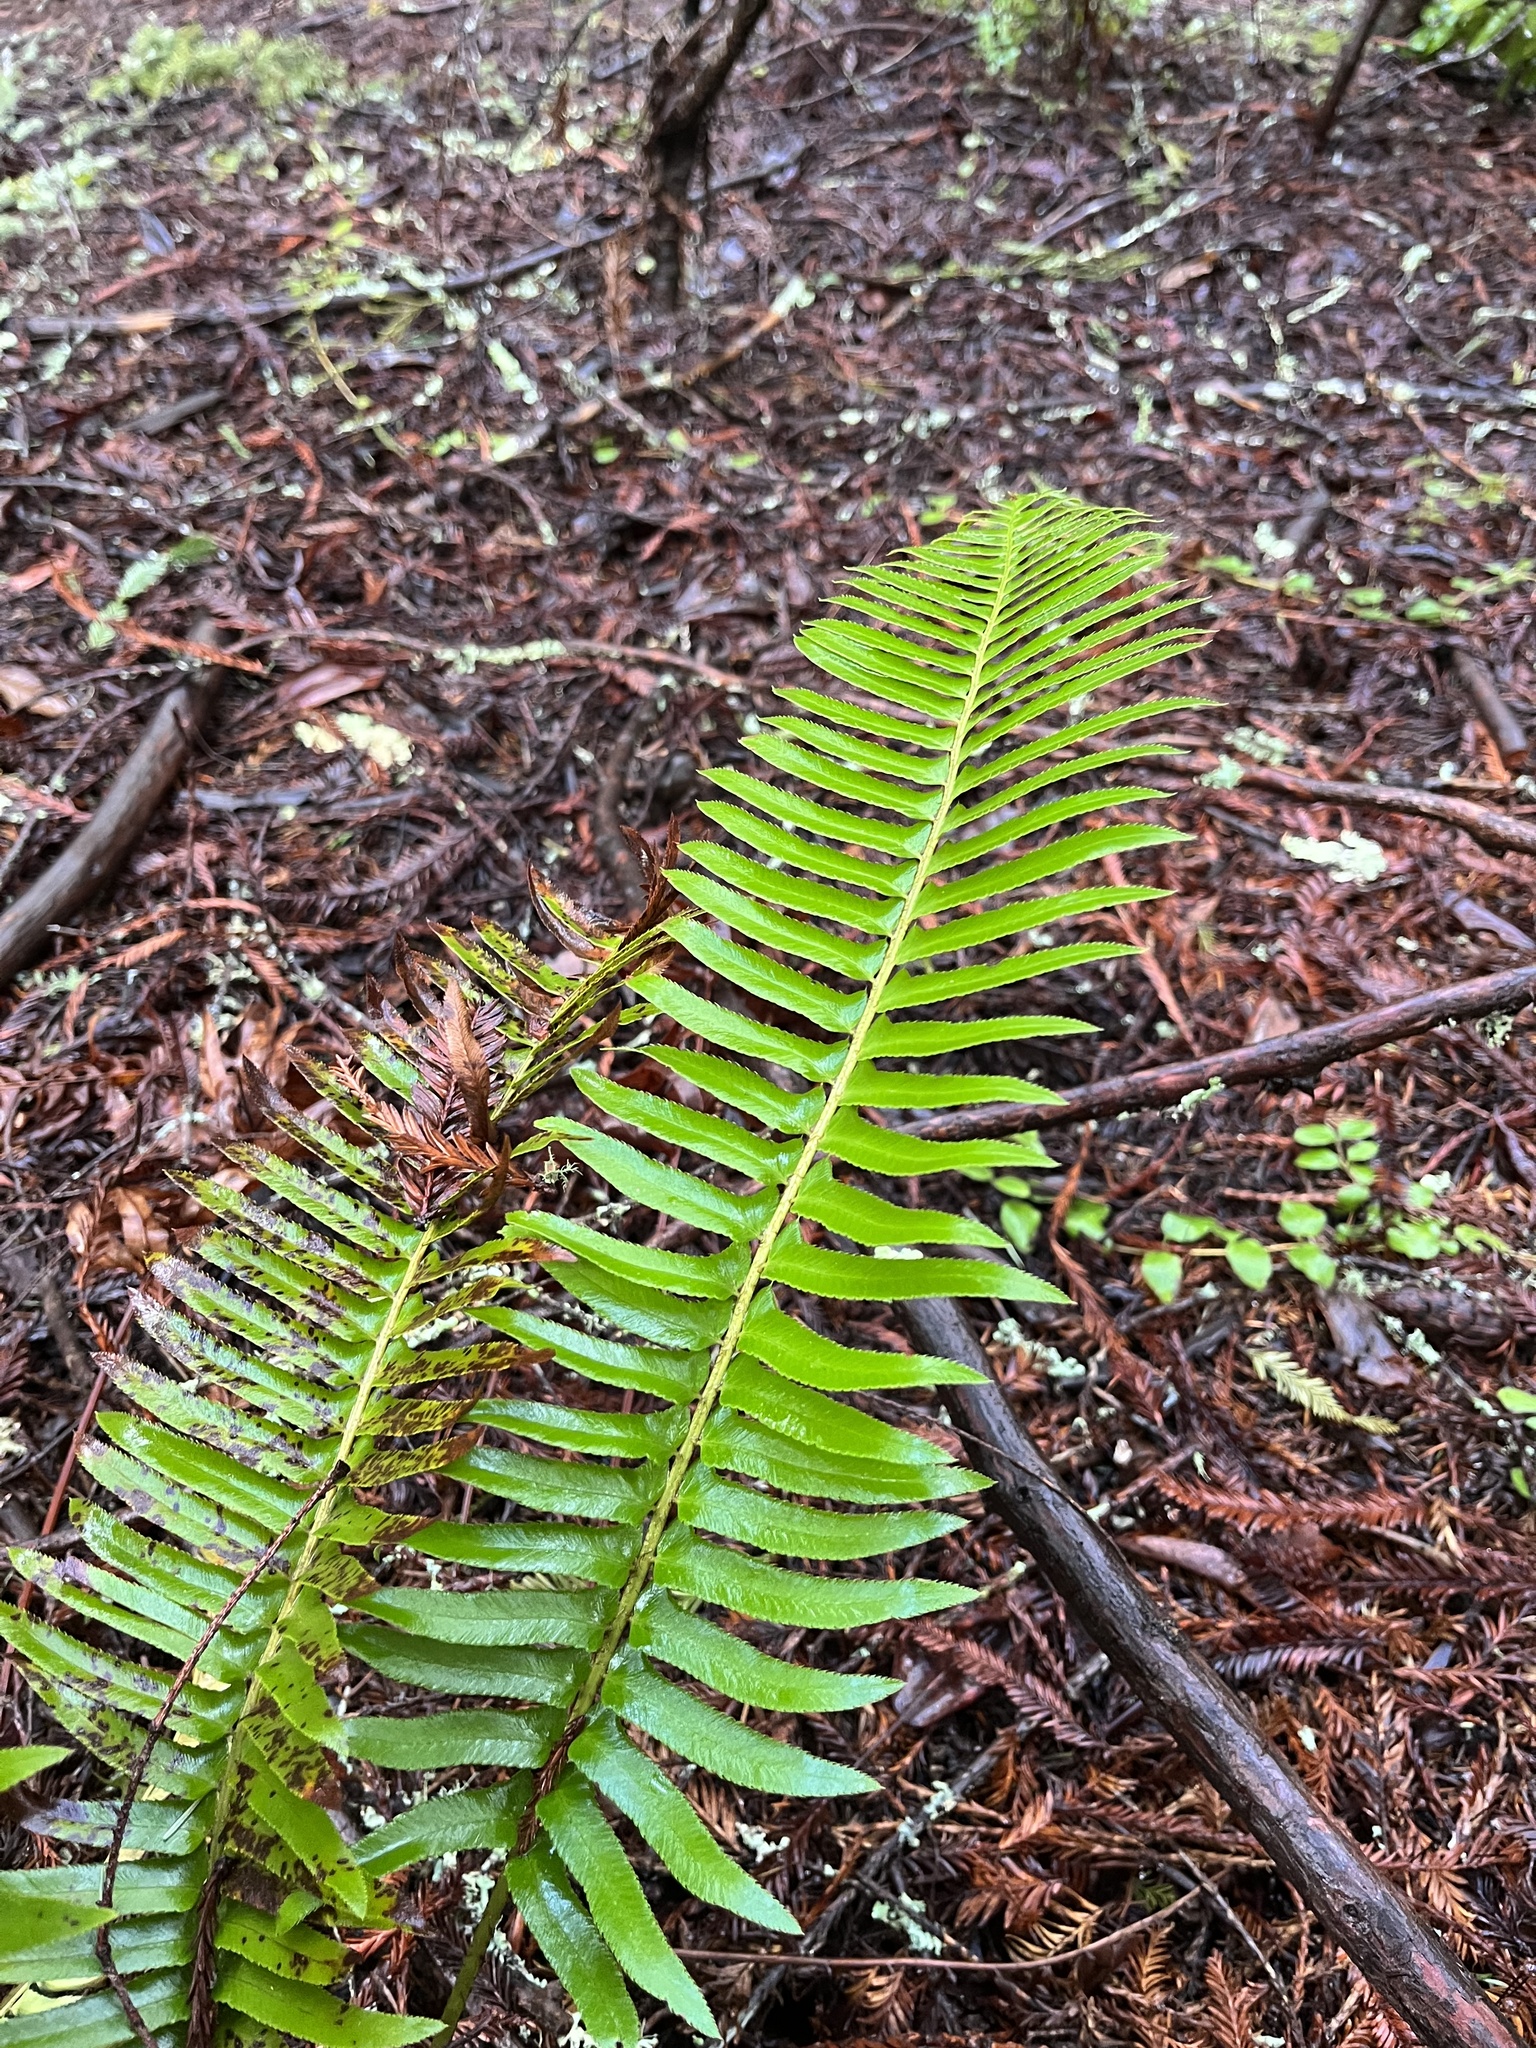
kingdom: Plantae
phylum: Tracheophyta
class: Polypodiopsida
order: Polypodiales
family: Dryopteridaceae
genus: Polystichum
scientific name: Polystichum munitum
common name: Western sword-fern
